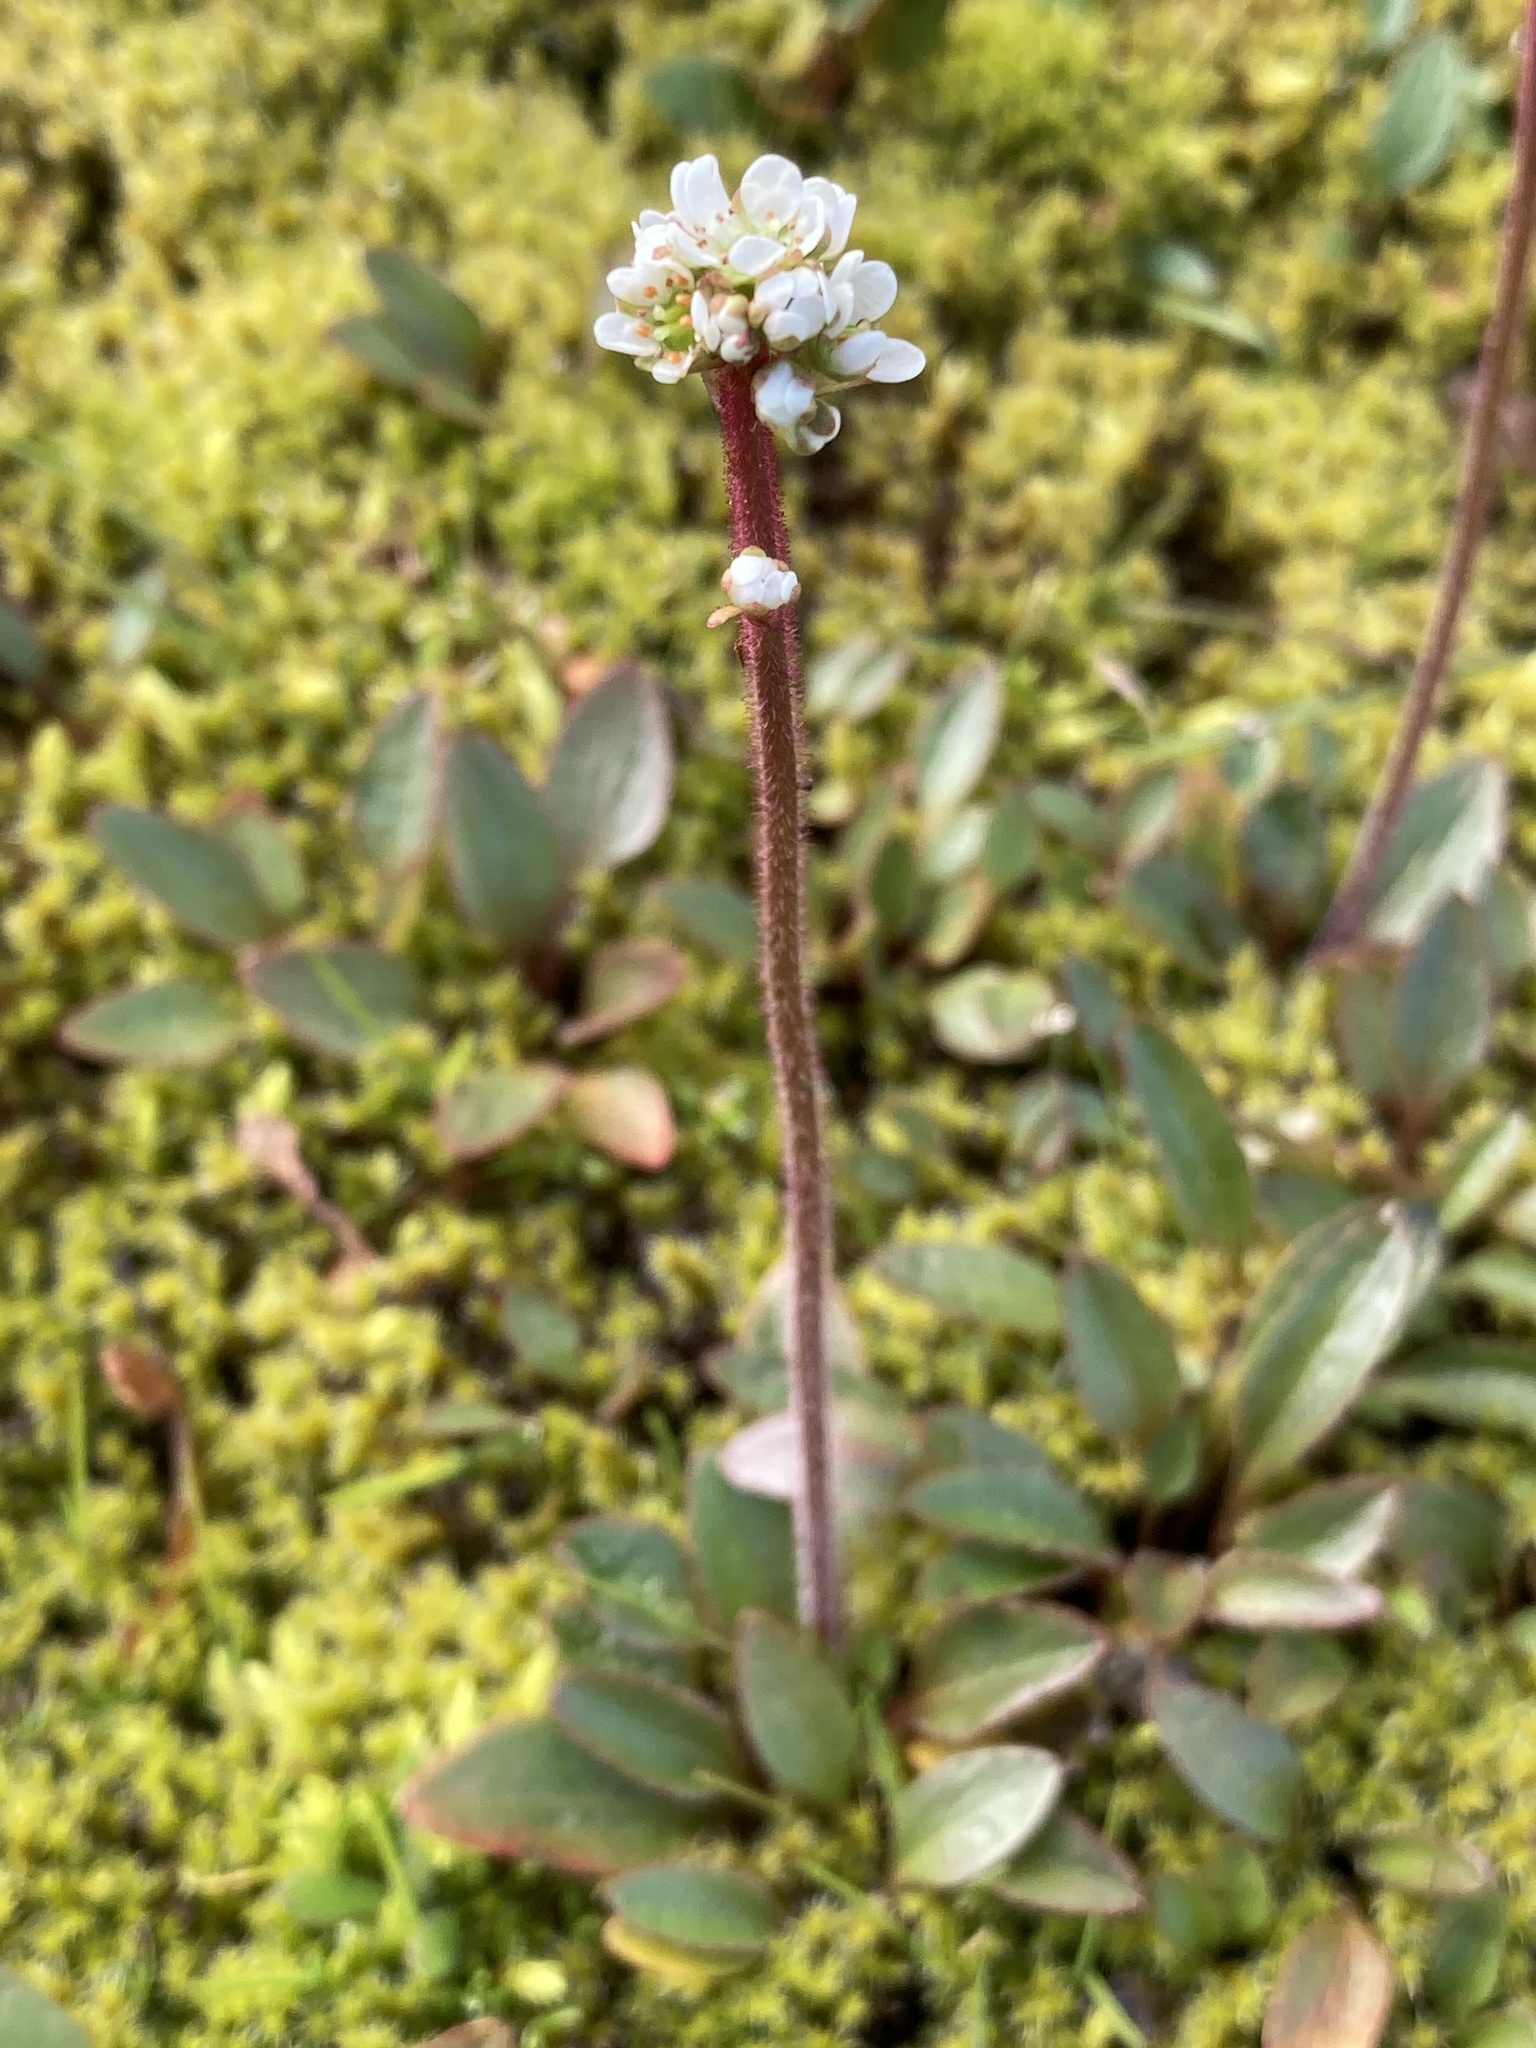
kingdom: Plantae
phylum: Tracheophyta
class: Magnoliopsida
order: Saxifragales
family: Saxifragaceae
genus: Micranthes
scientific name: Micranthes integrifolia
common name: Wholeleaf saxifrage
